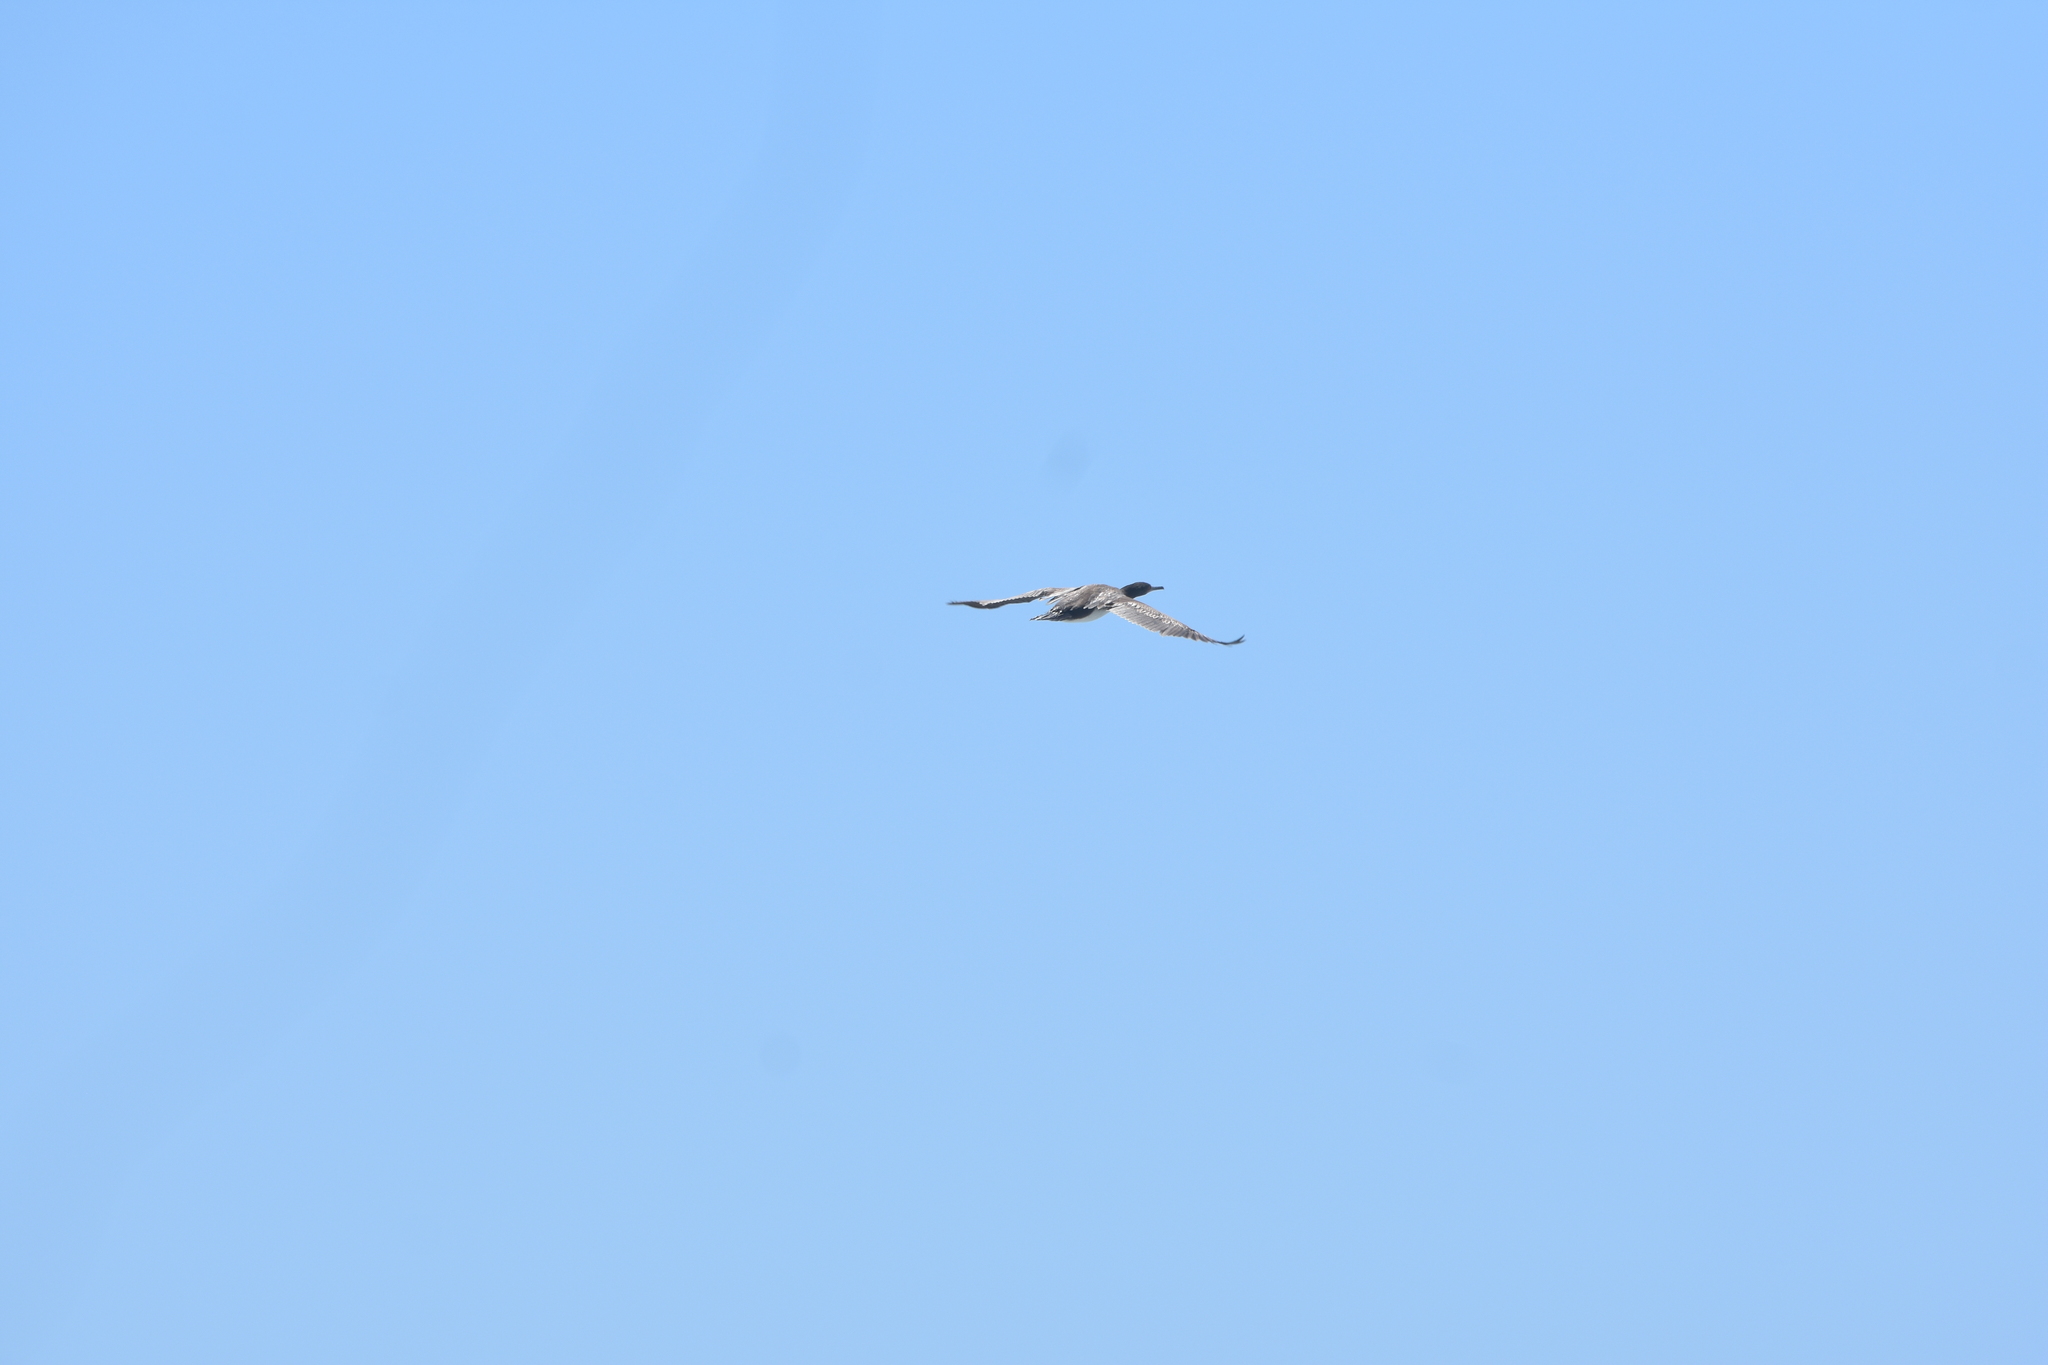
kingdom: Animalia
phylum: Chordata
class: Aves
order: Suliformes
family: Phalacrocoracidae
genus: Leucocarbo
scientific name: Leucocarbo bougainvillii
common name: Guanay cormorant
